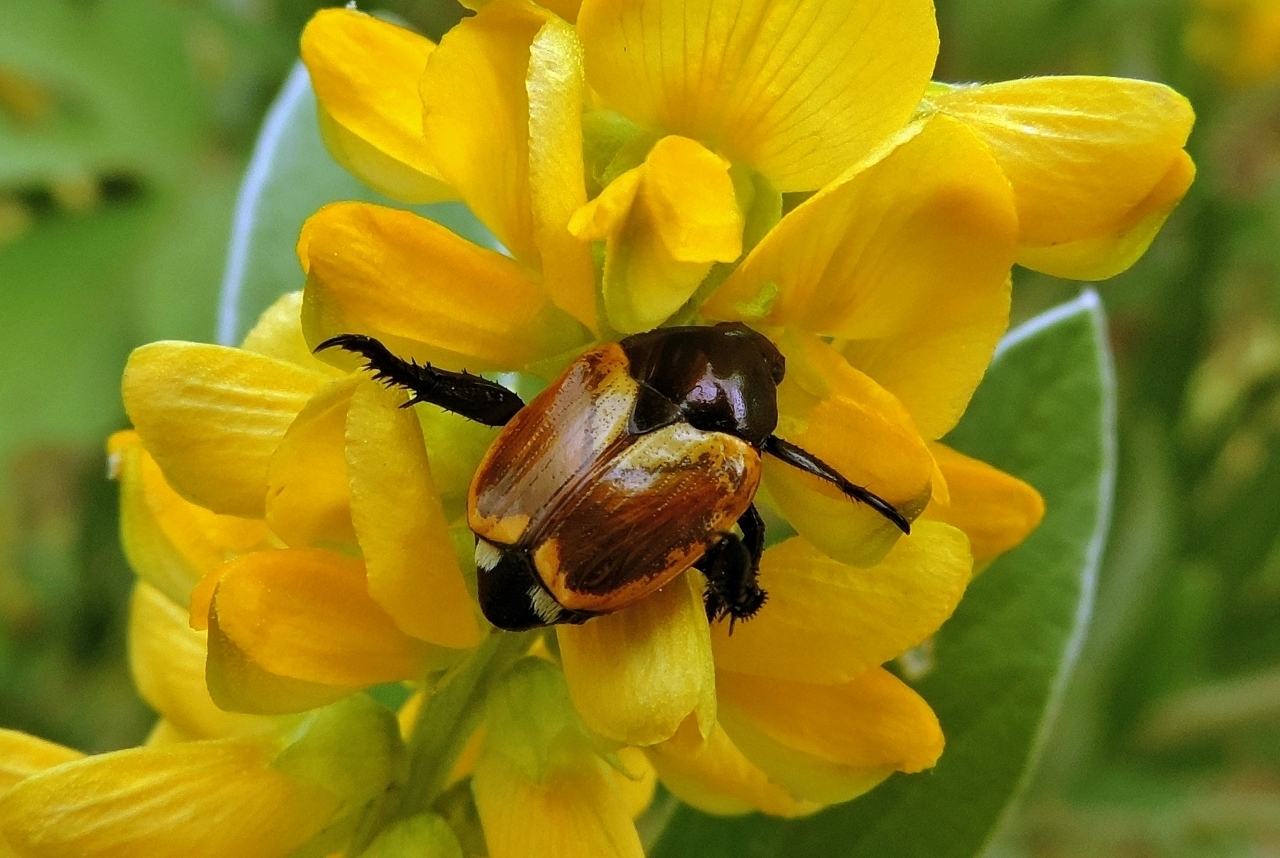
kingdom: Animalia
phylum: Arthropoda
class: Insecta
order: Coleoptera
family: Scarabaeidae
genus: Popillia
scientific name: Popillia bipunctata
